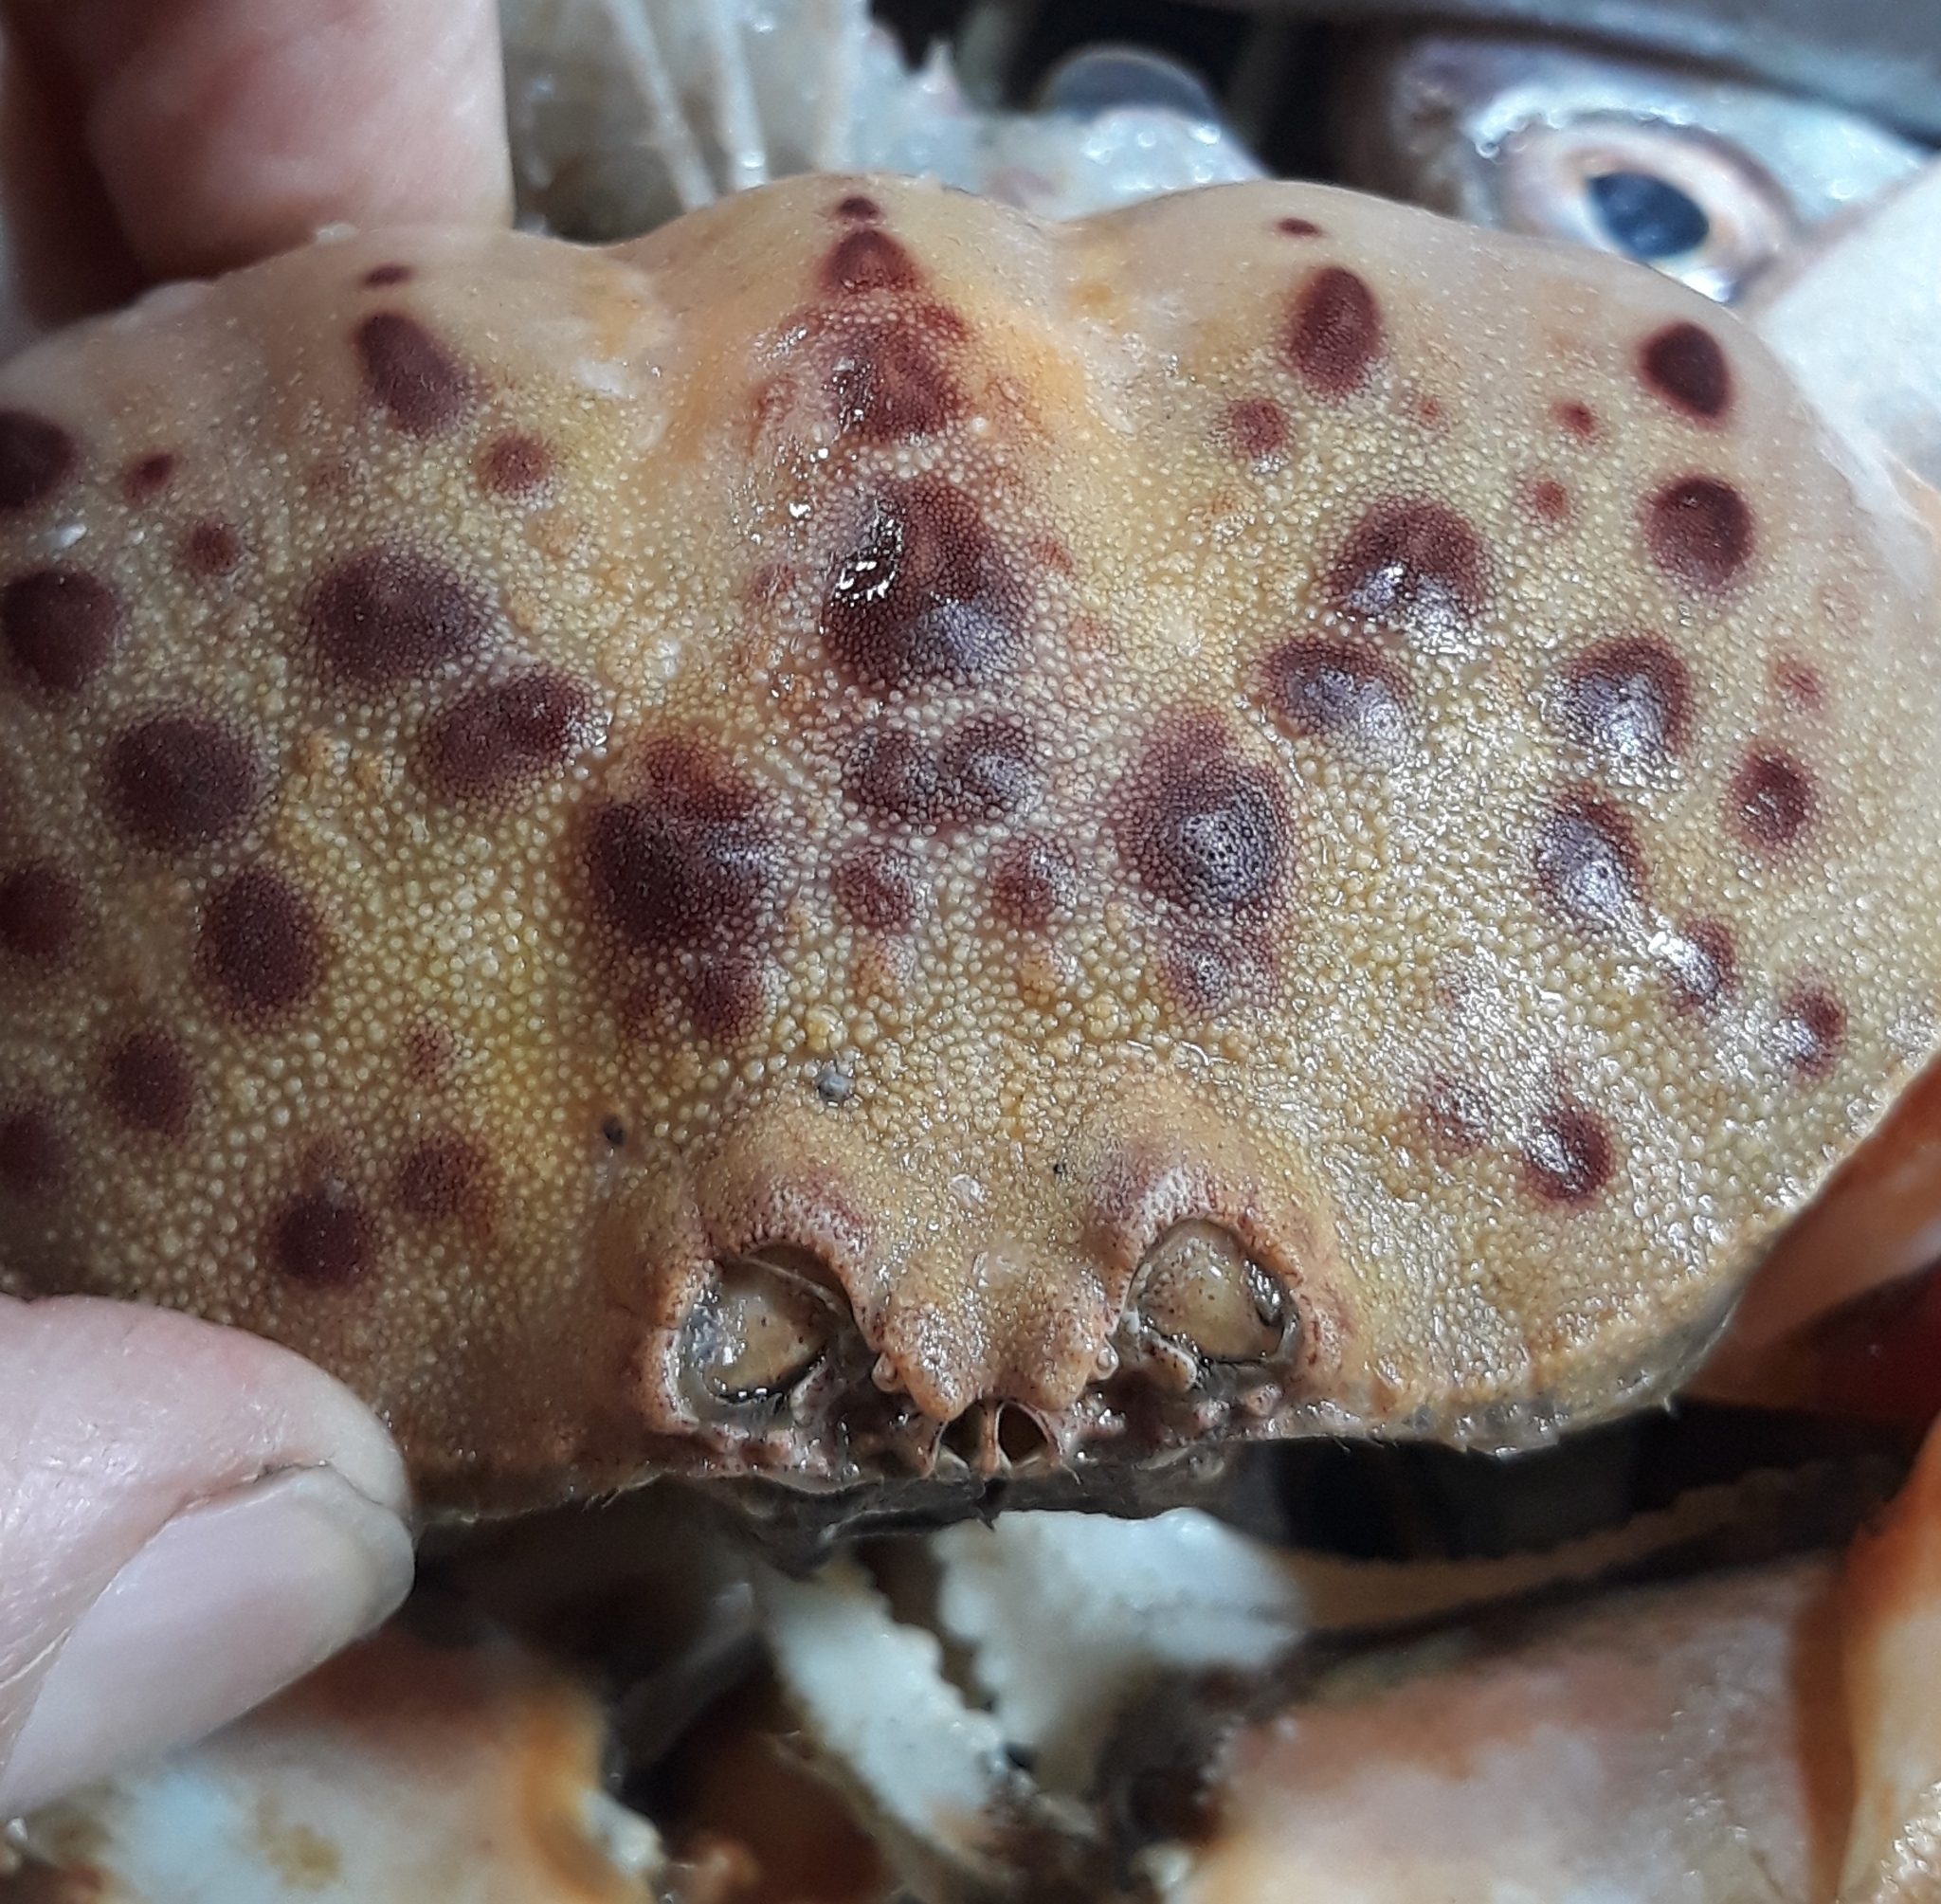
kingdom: Animalia
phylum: Arthropoda
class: Malacostraca
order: Decapoda
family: Calappidae
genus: Calappa
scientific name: Calappa granulata
